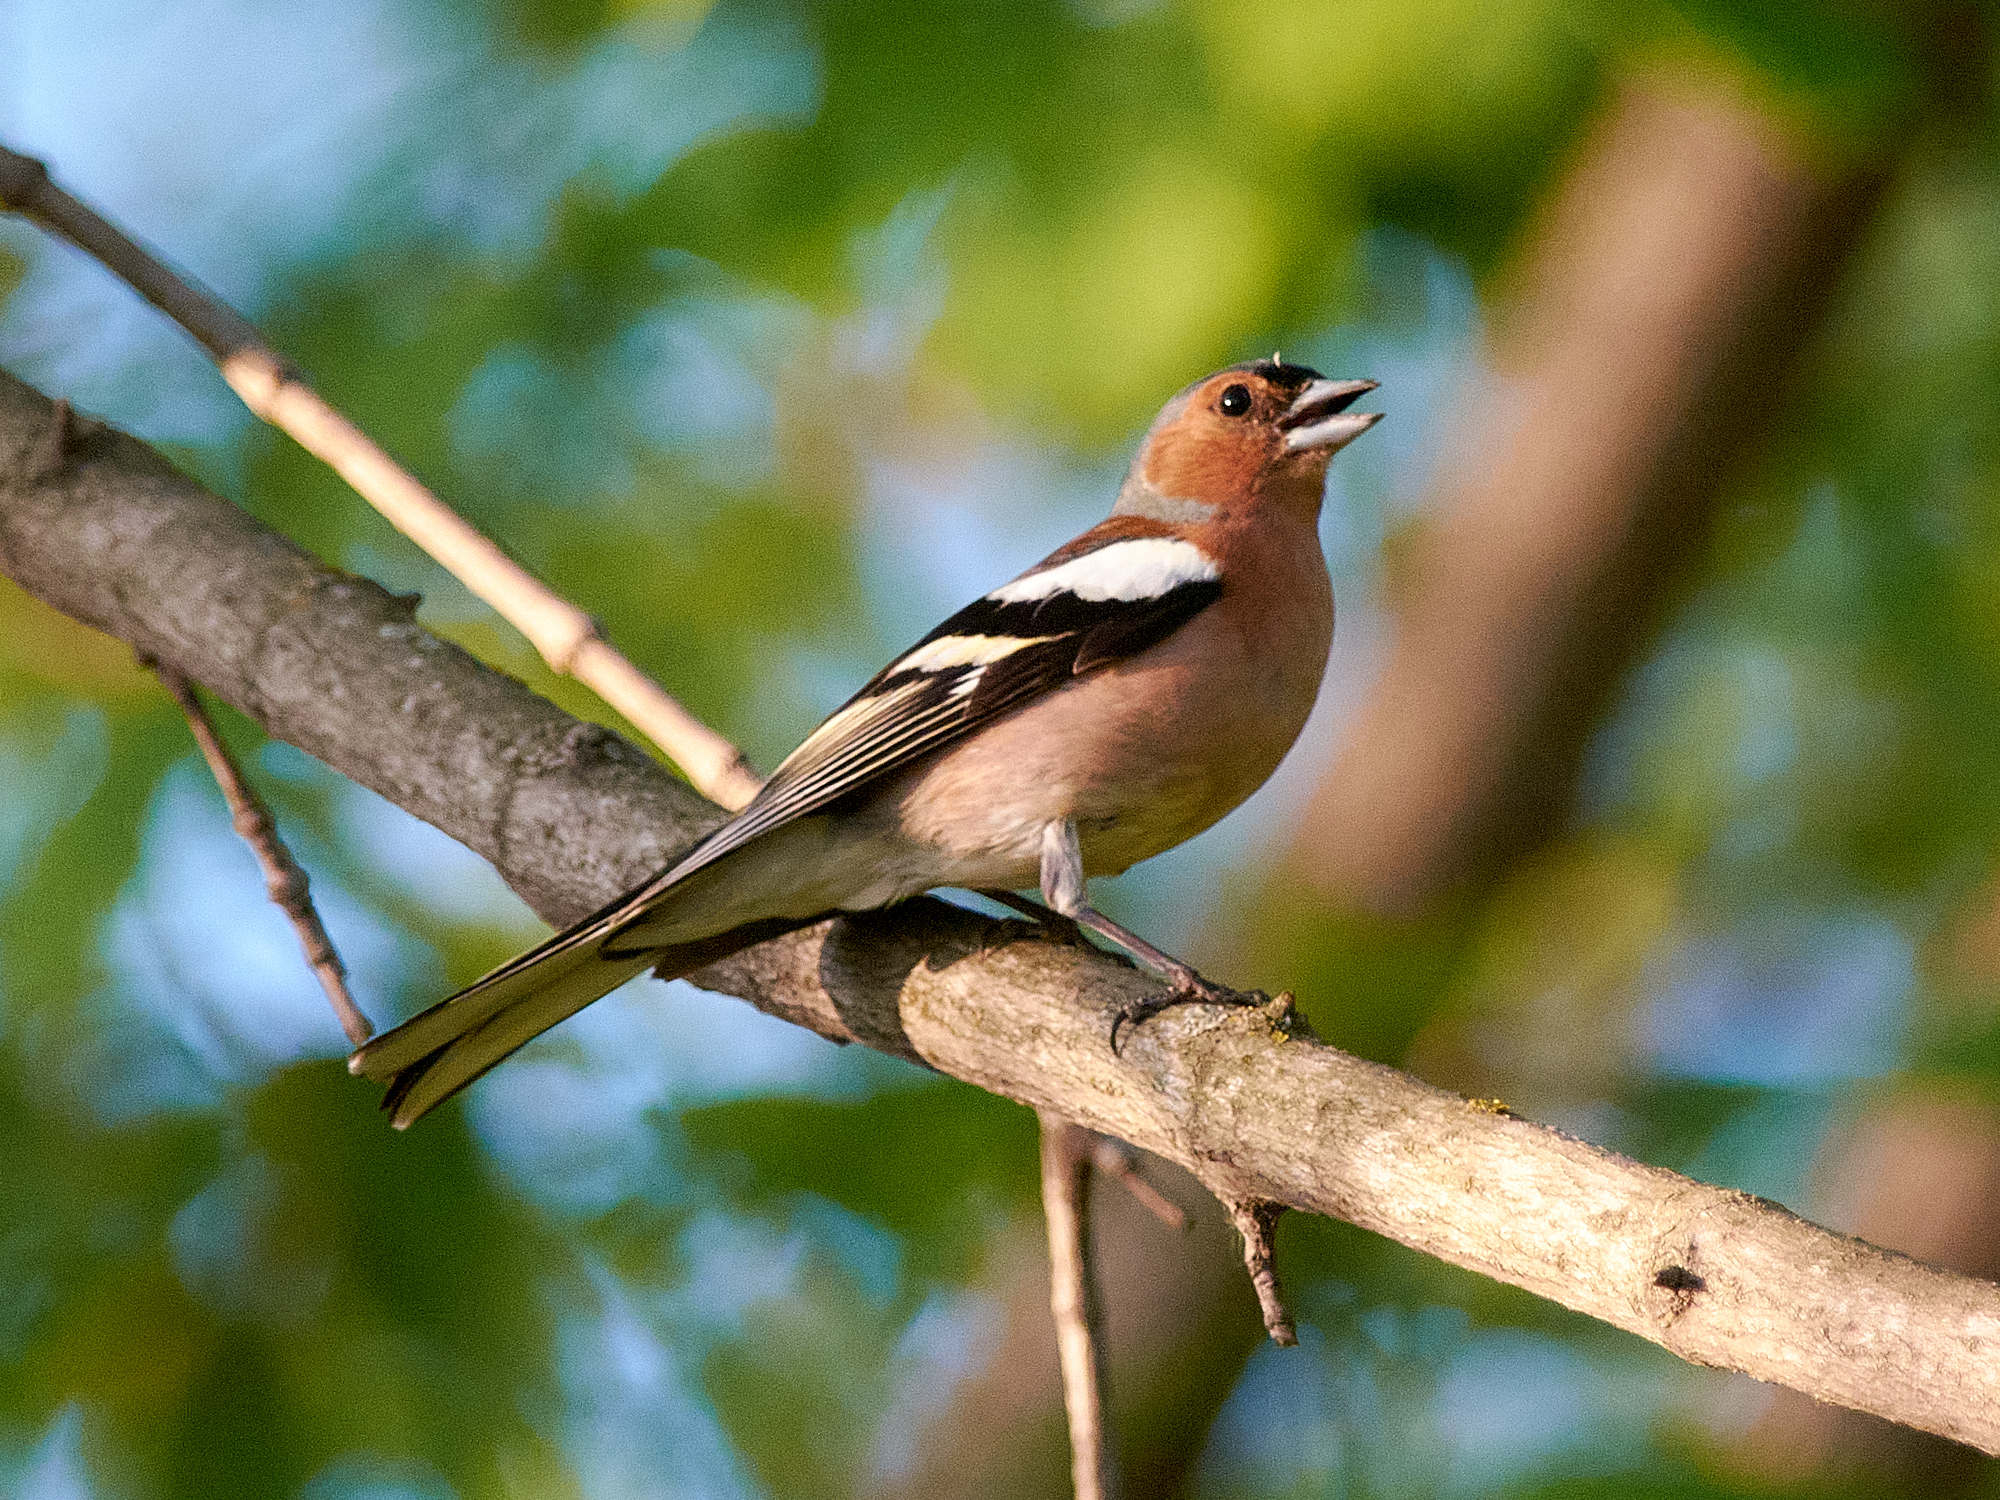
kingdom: Animalia
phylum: Chordata
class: Aves
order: Passeriformes
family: Fringillidae
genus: Fringilla
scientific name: Fringilla coelebs
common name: Common chaffinch
